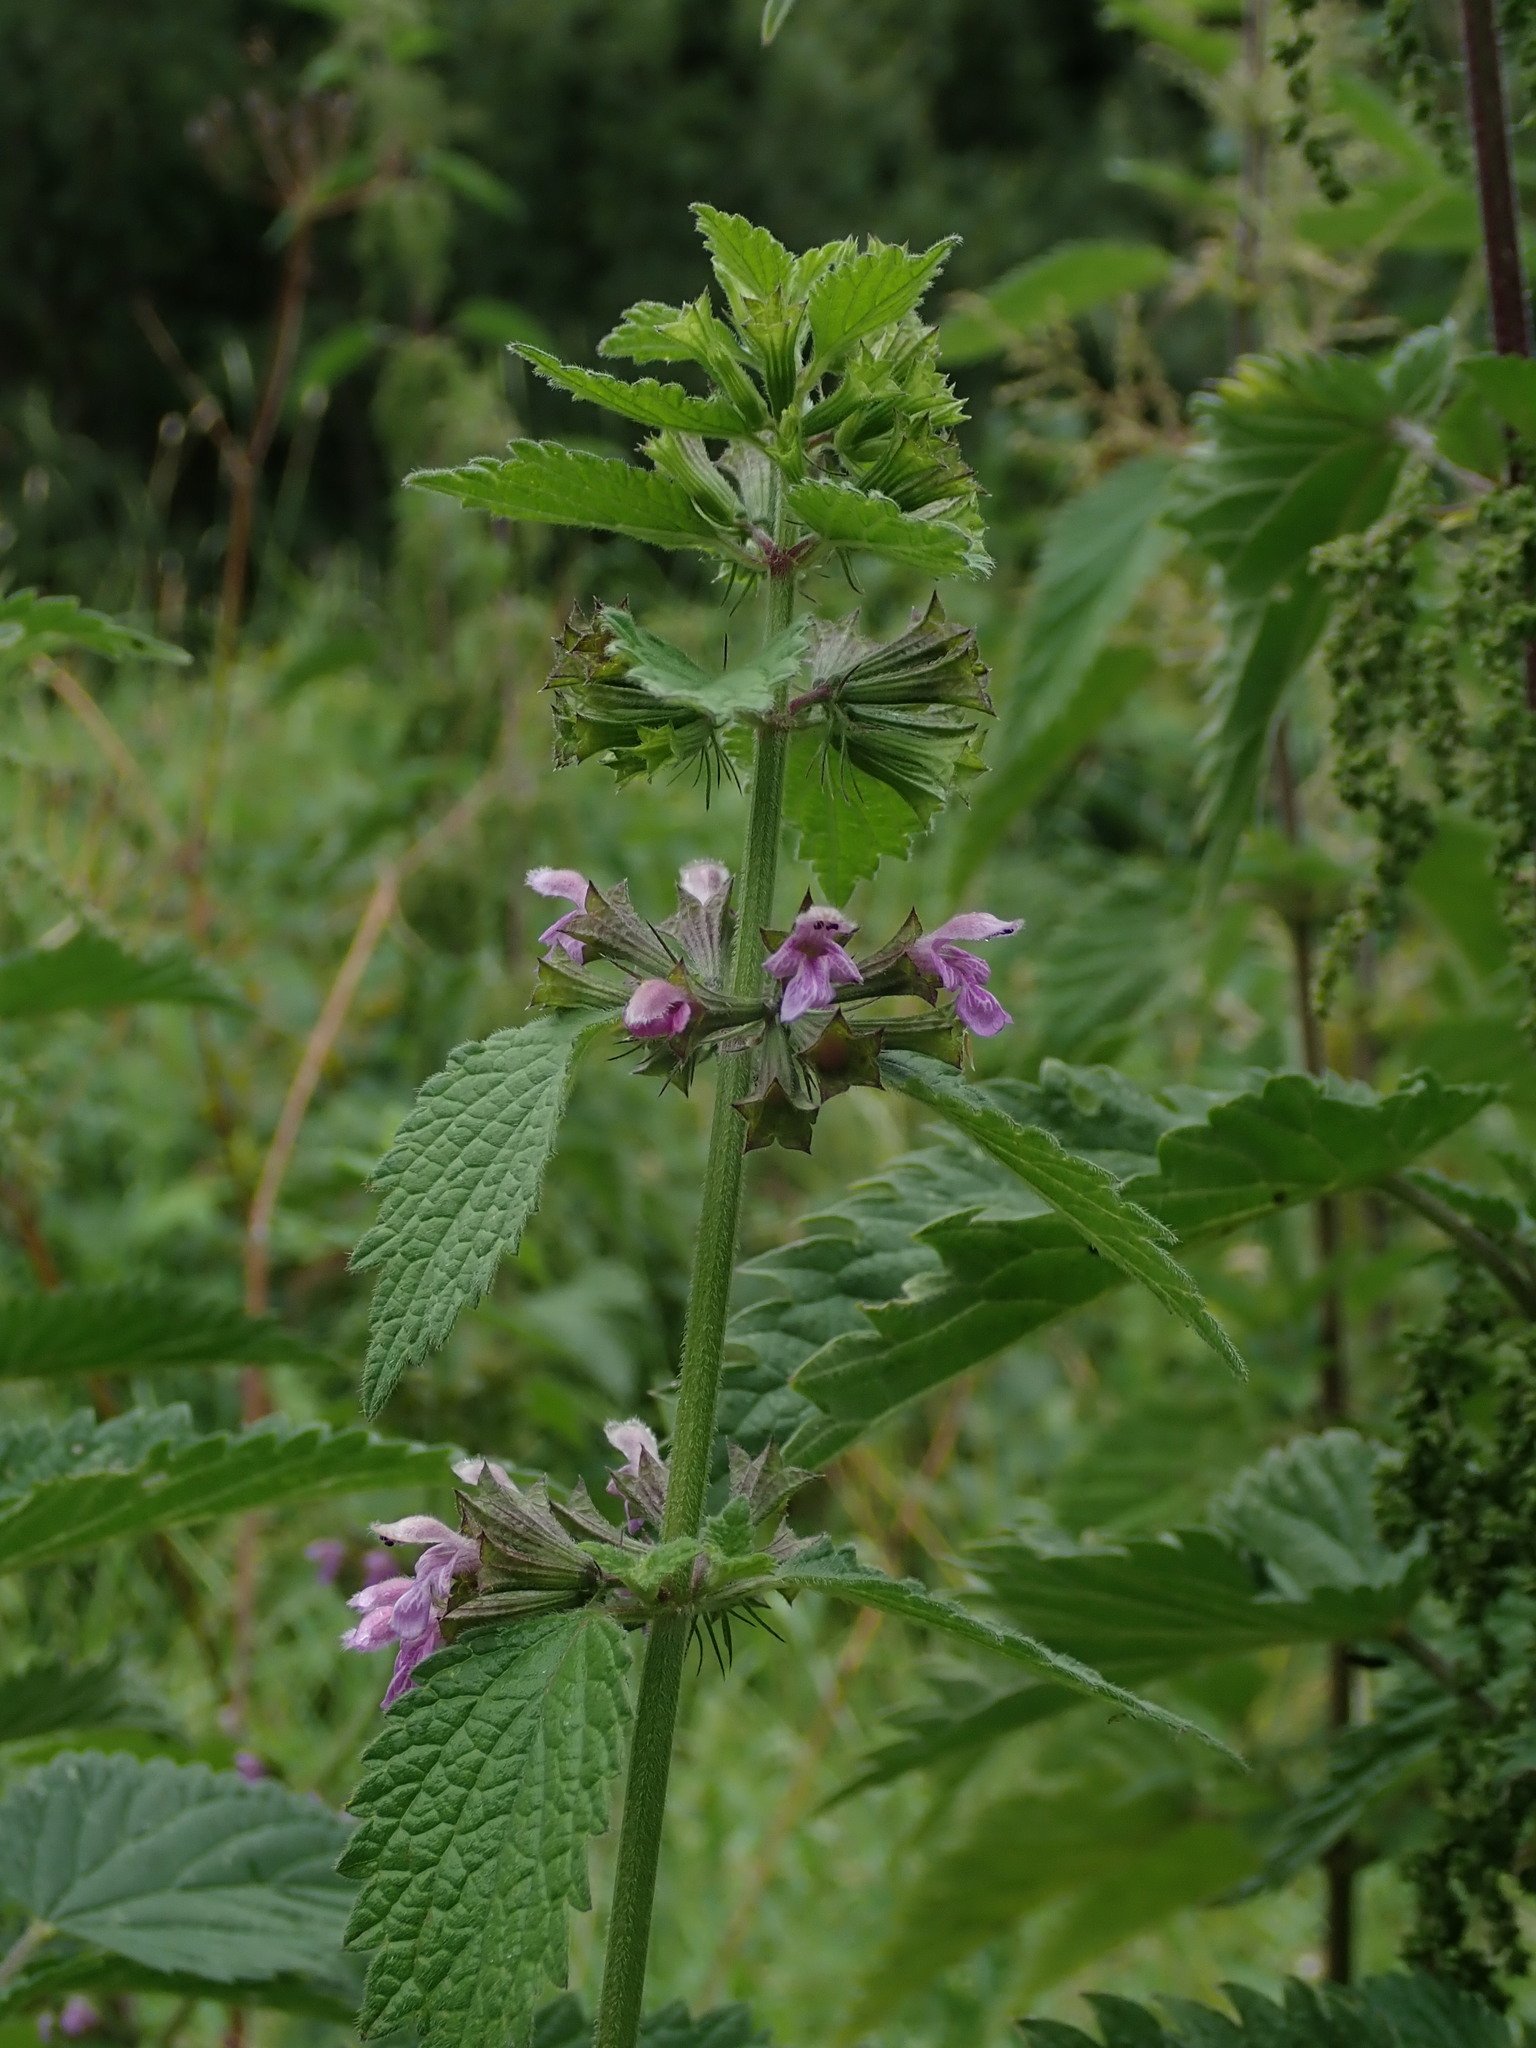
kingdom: Plantae
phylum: Tracheophyta
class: Magnoliopsida
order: Lamiales
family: Lamiaceae
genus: Ballota
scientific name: Ballota nigra
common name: Black horehound
